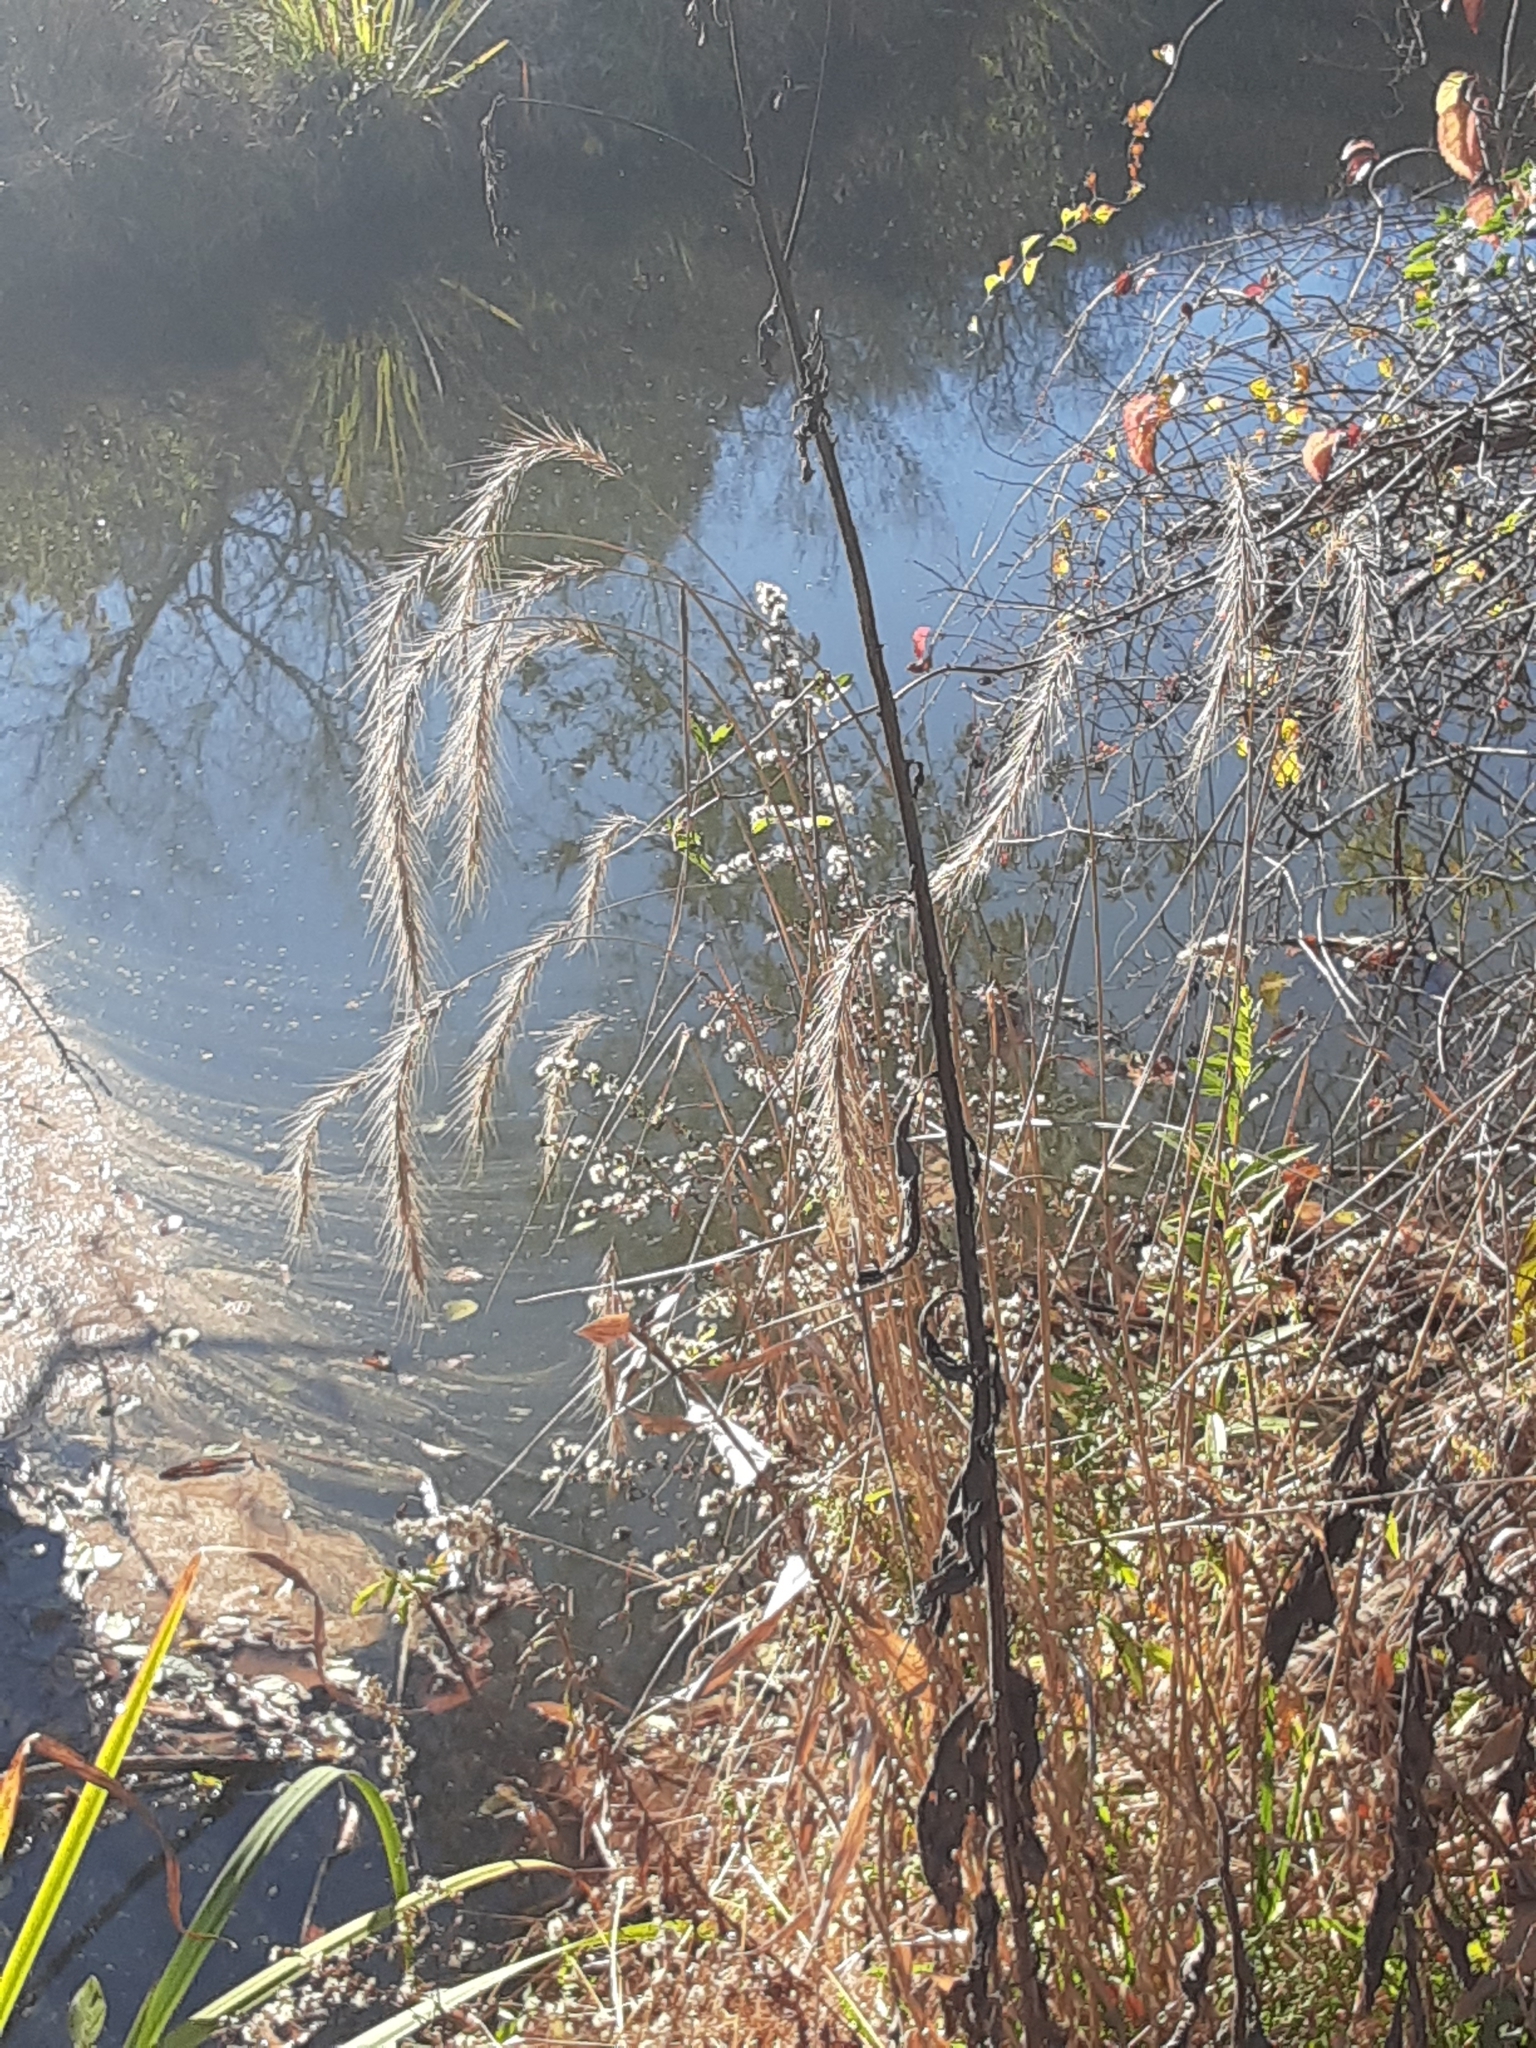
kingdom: Plantae
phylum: Tracheophyta
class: Liliopsida
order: Poales
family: Poaceae
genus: Elymus
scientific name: Elymus riparius
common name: Eastern riverbank wild rye
